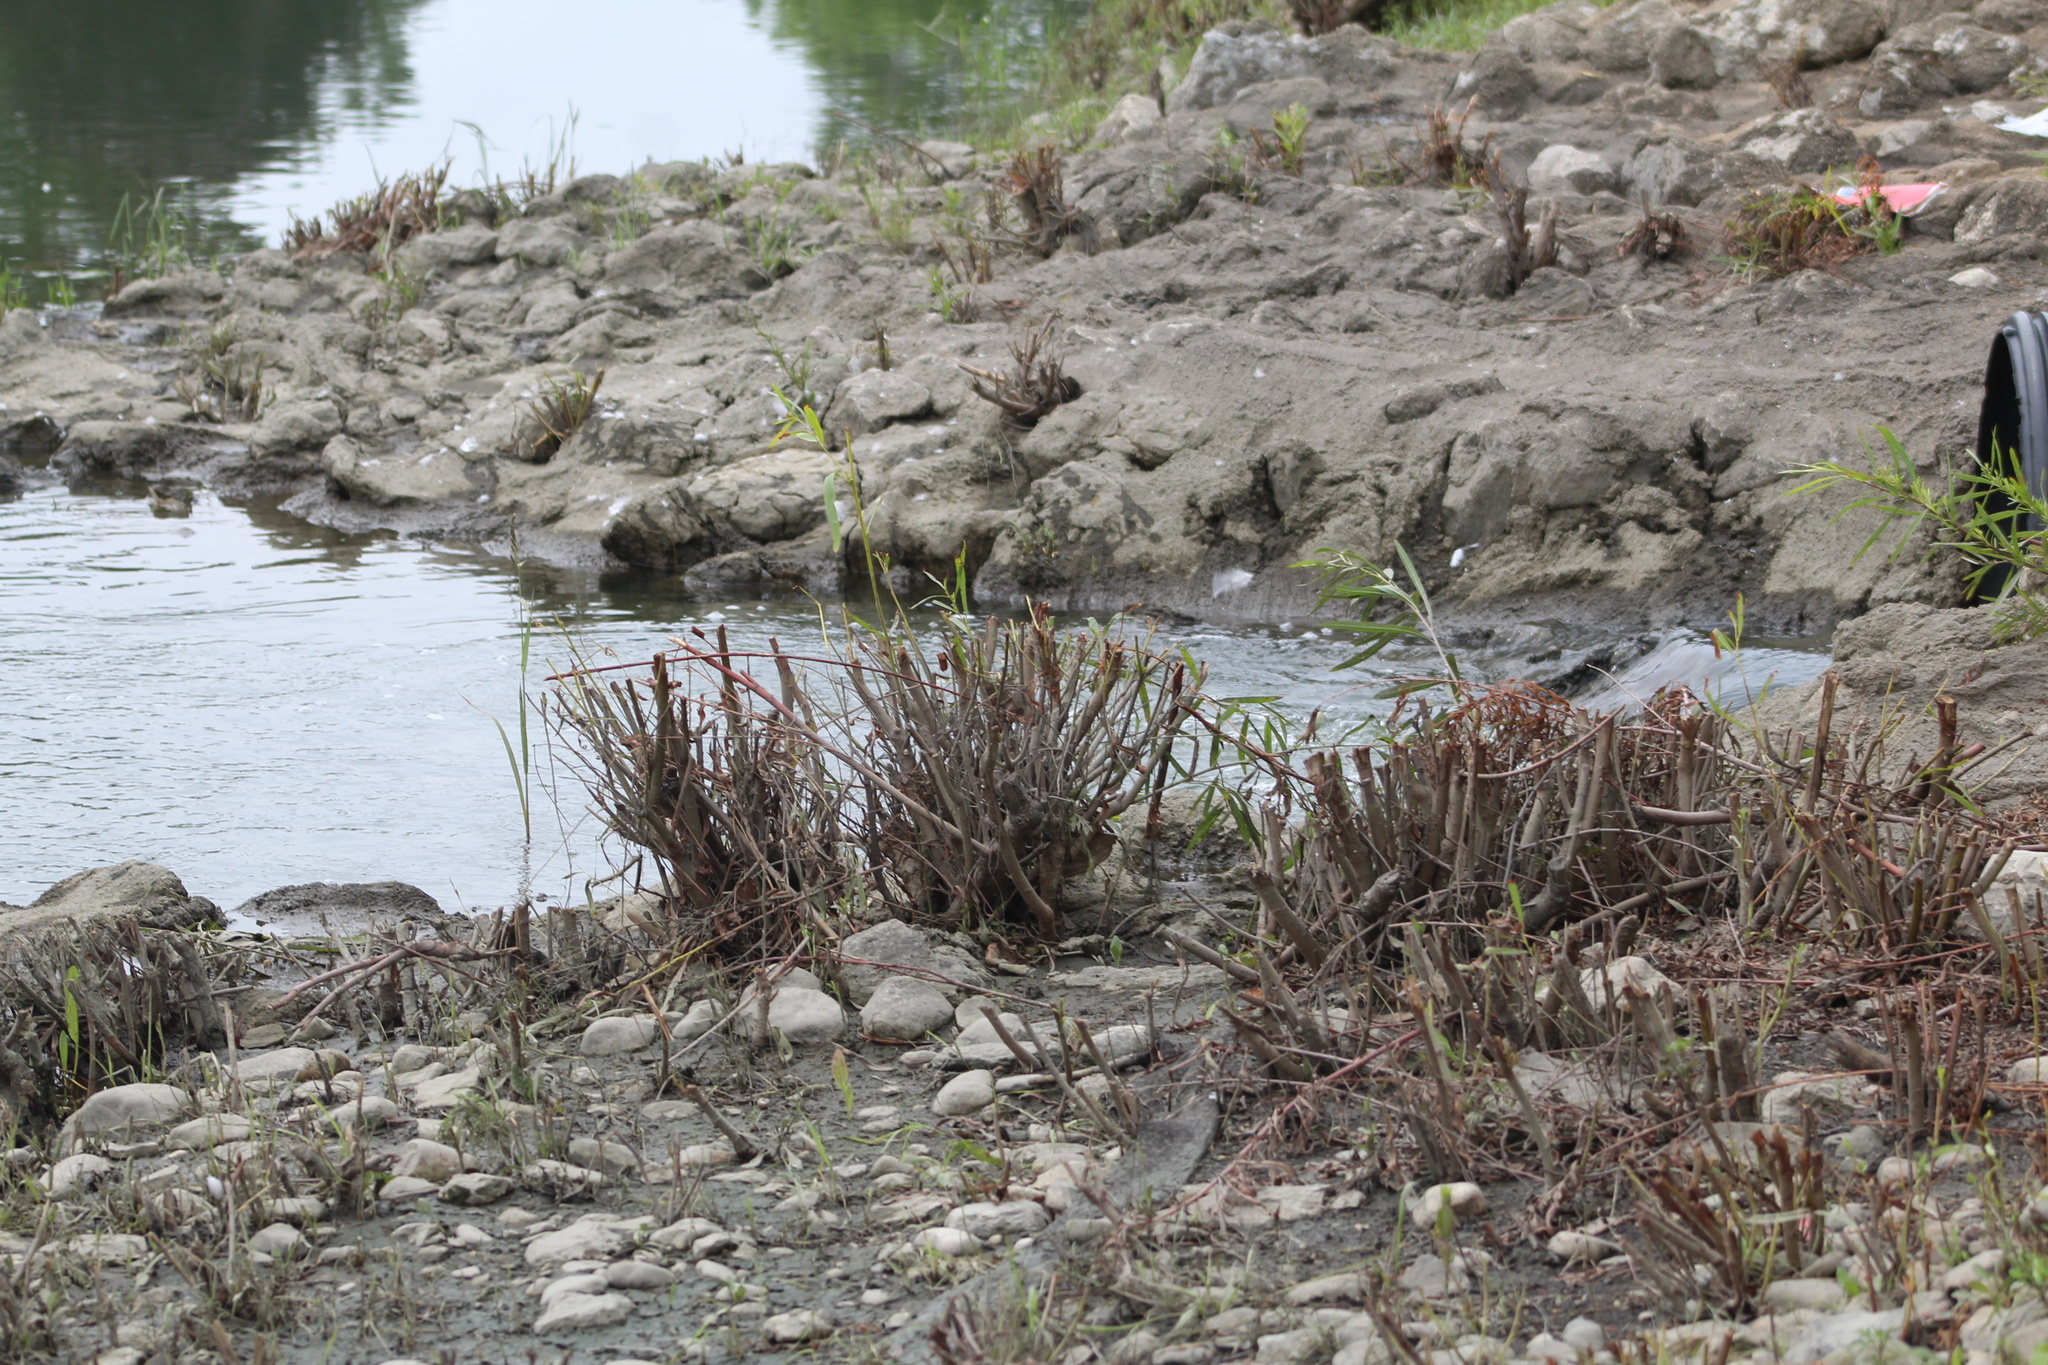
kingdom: Animalia
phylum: Mollusca
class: Bivalvia
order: Venerida
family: Cyrenidae
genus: Corbicula
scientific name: Corbicula fluminea
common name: Asian clam
